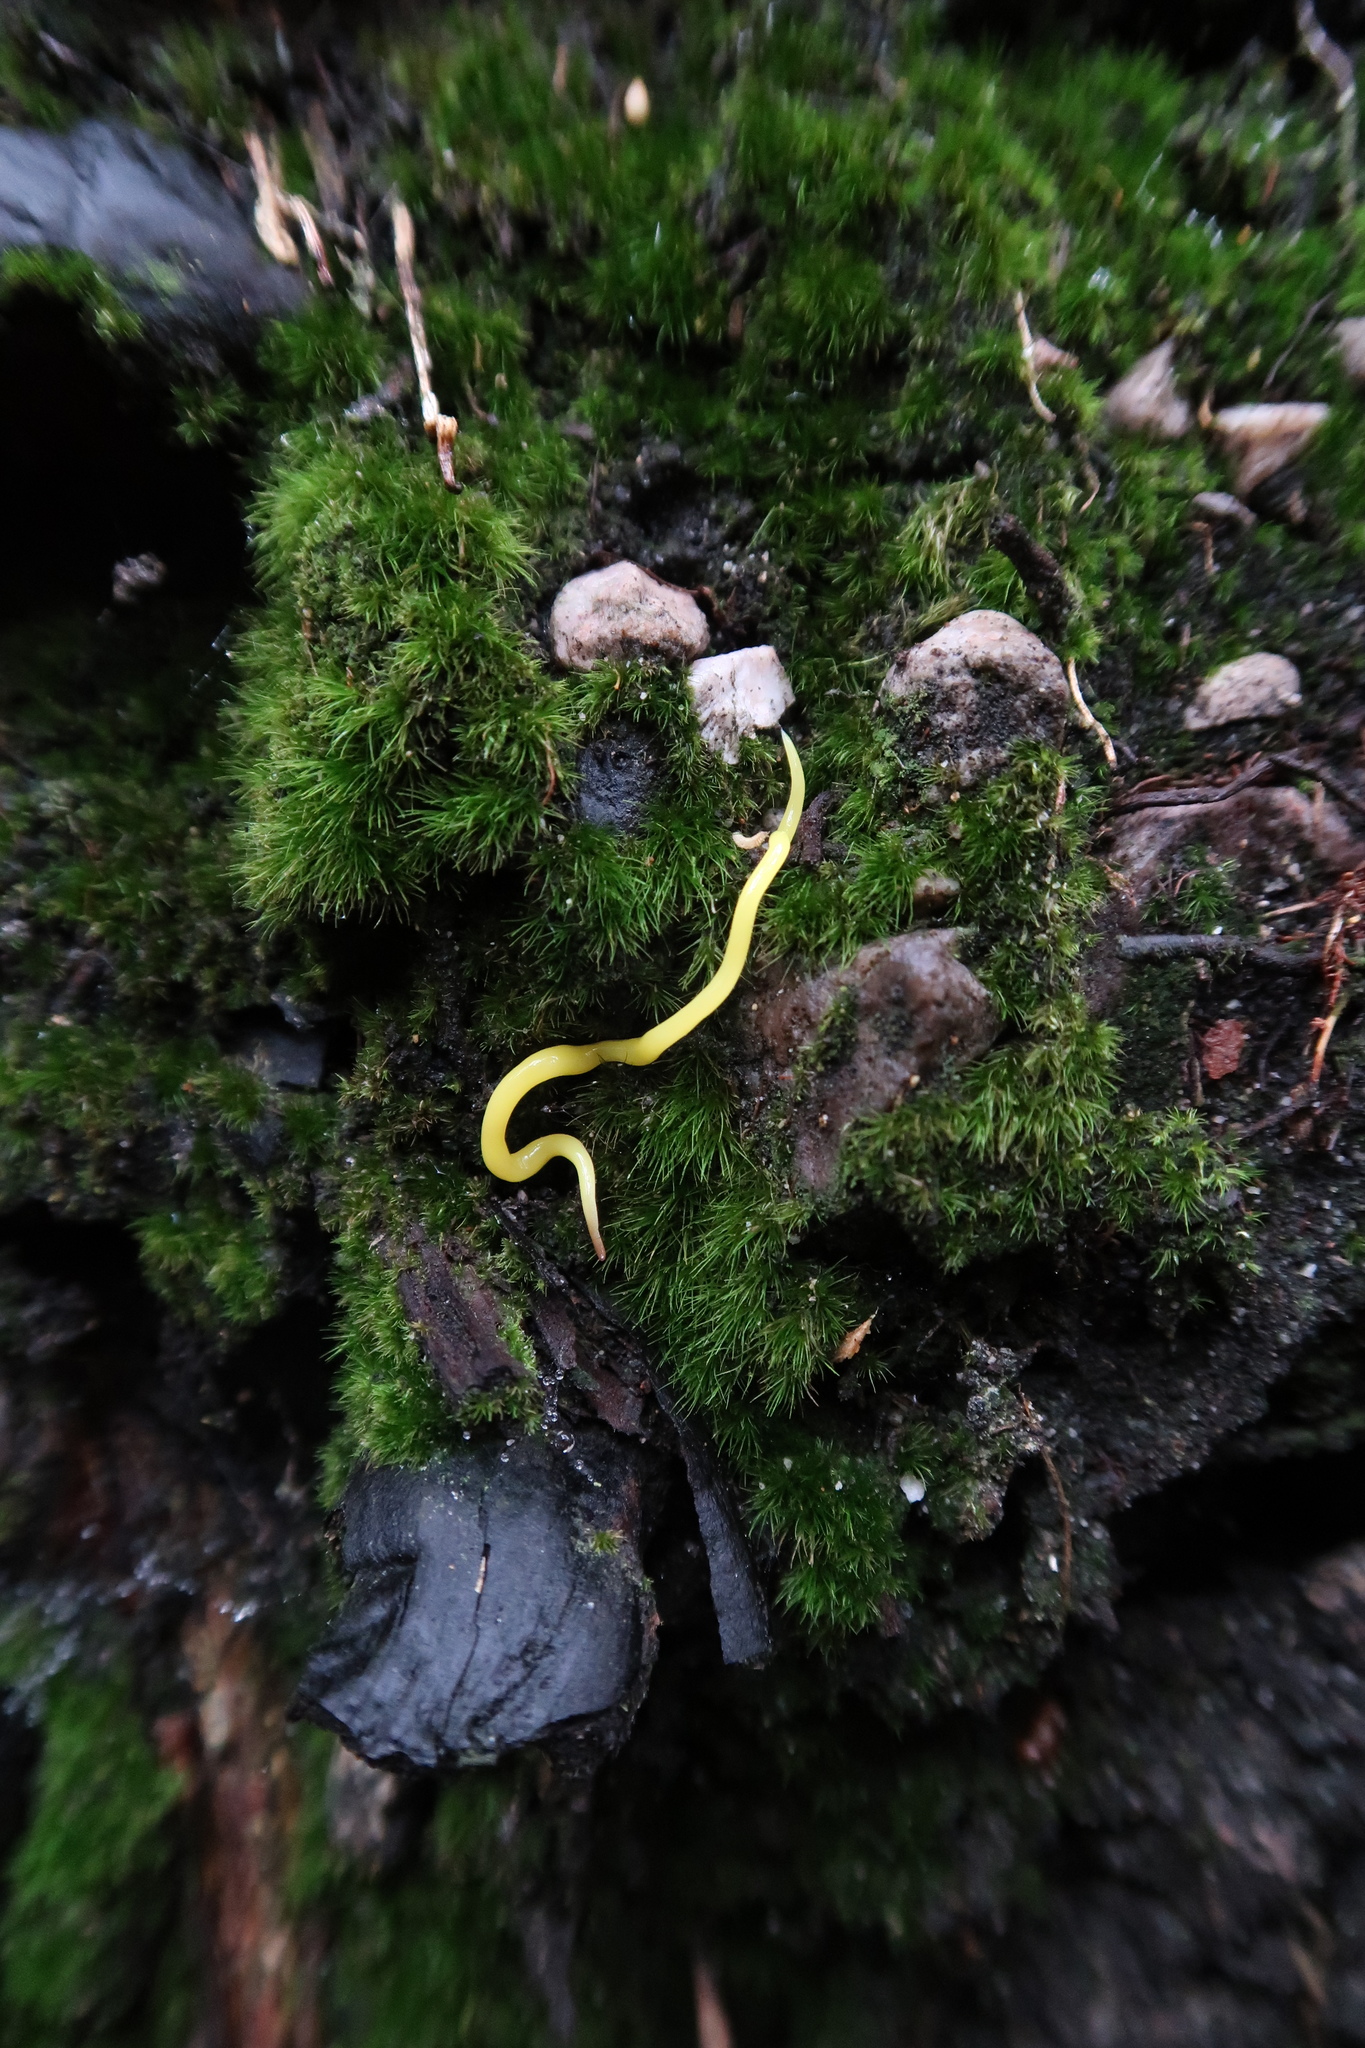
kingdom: Animalia
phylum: Platyhelminthes
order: Tricladida
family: Geoplanidae
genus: Fletchamia
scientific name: Fletchamia sugdeni
